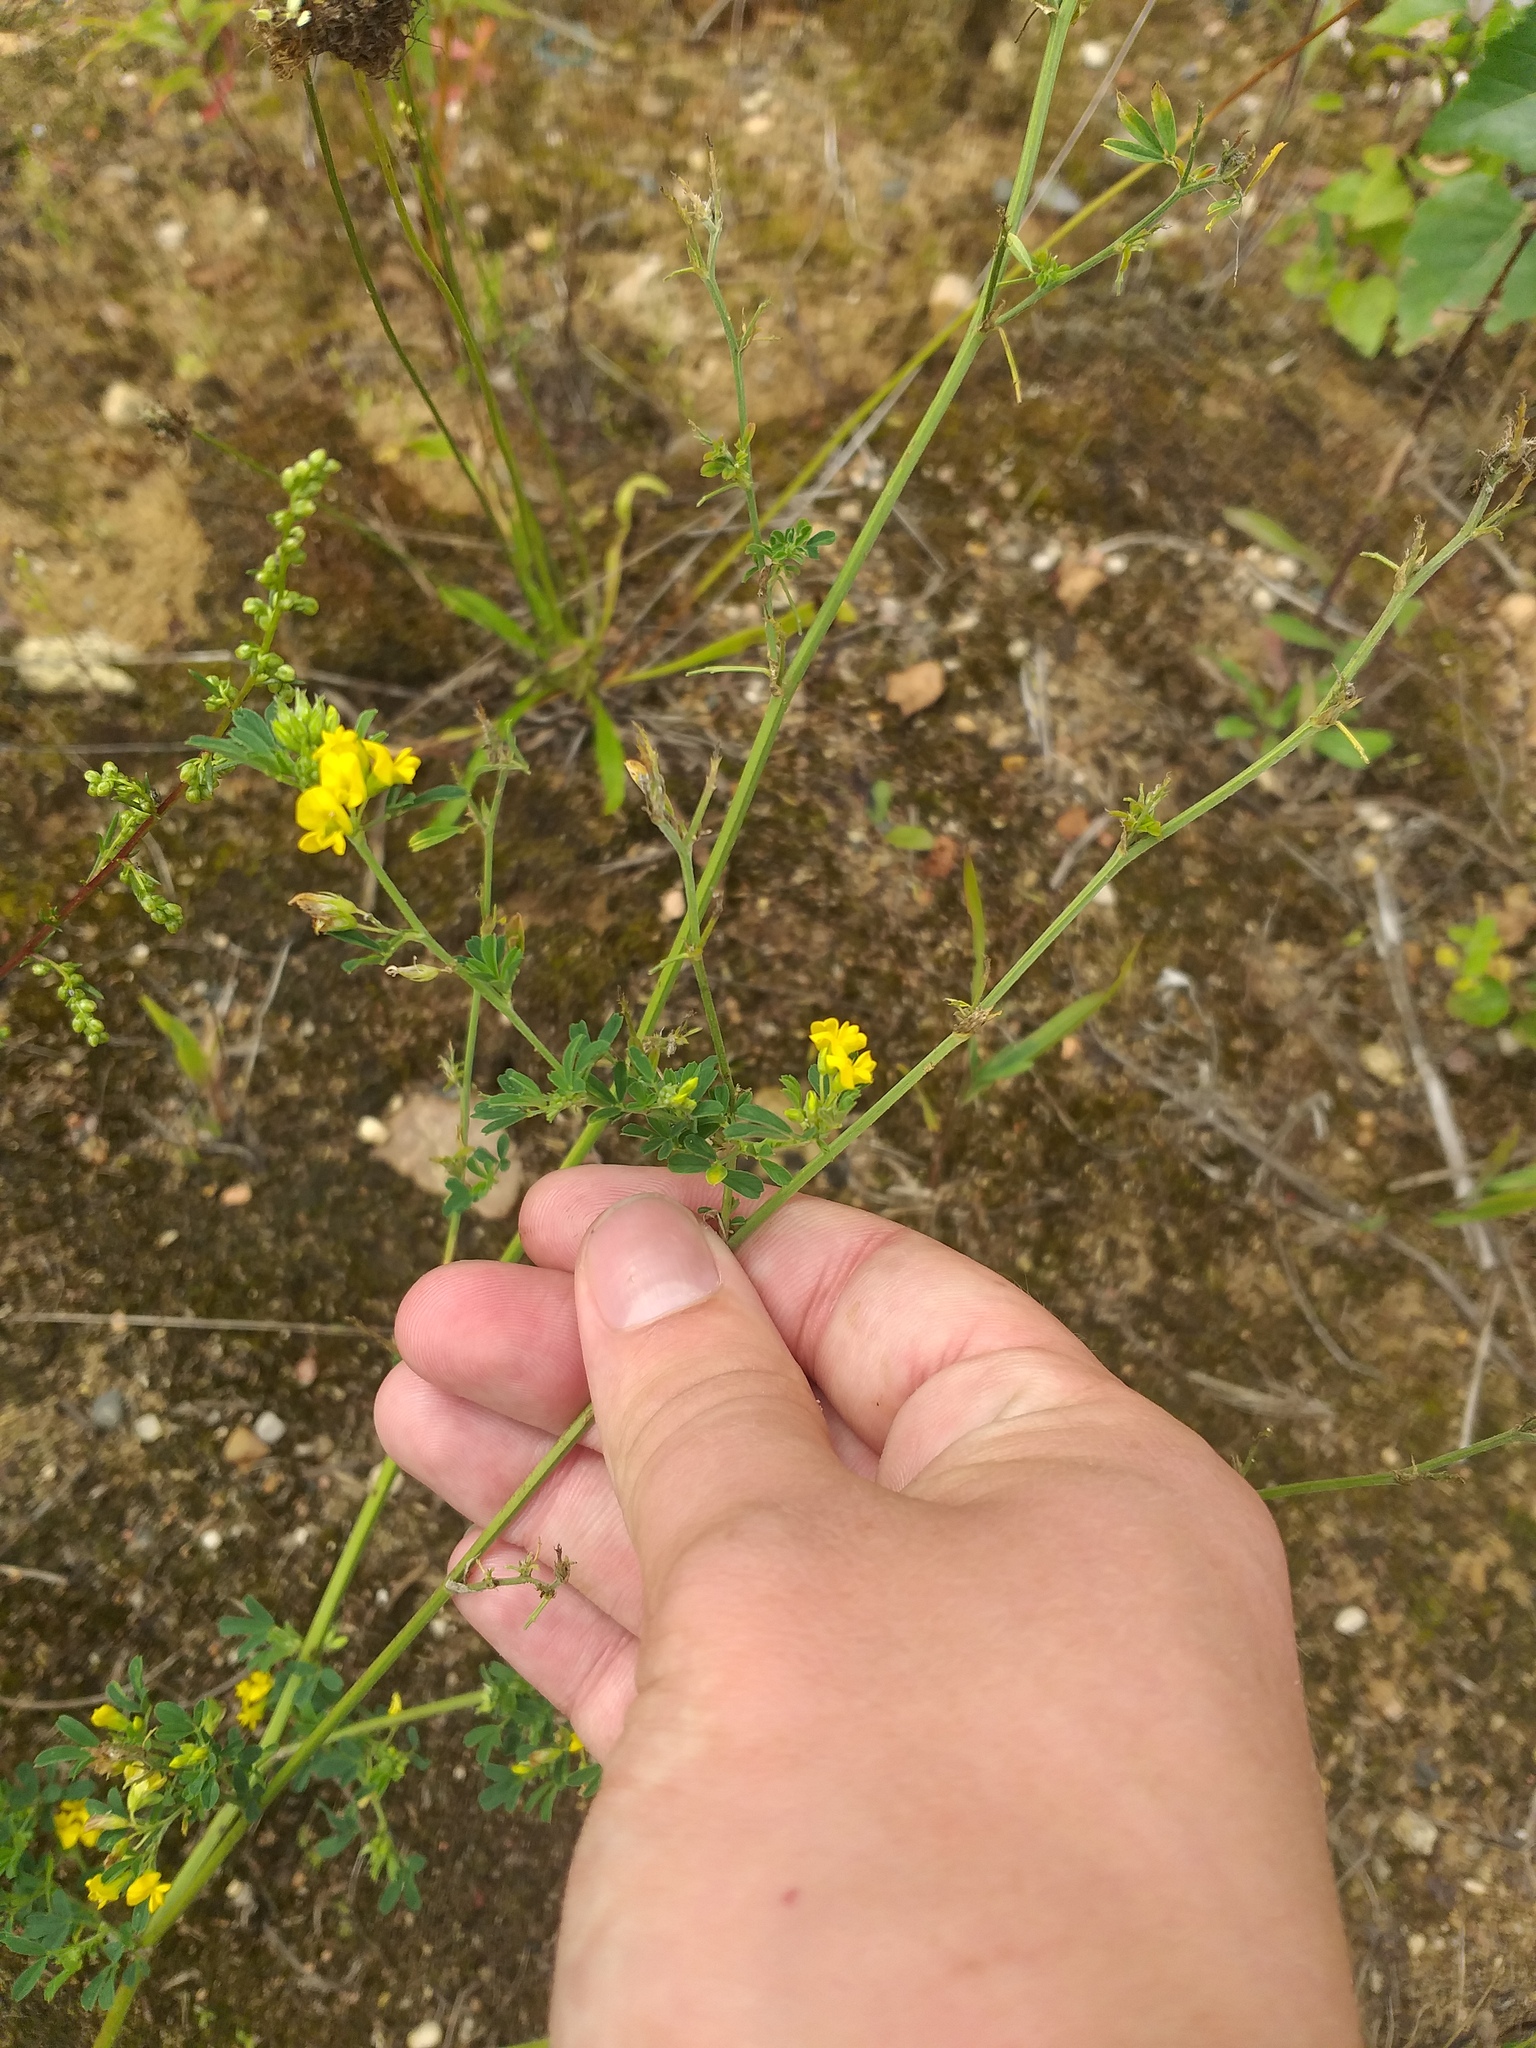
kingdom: Plantae
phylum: Tracheophyta
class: Magnoliopsida
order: Fabales
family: Fabaceae
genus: Medicago
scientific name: Medicago falcata
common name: Sickle medick
